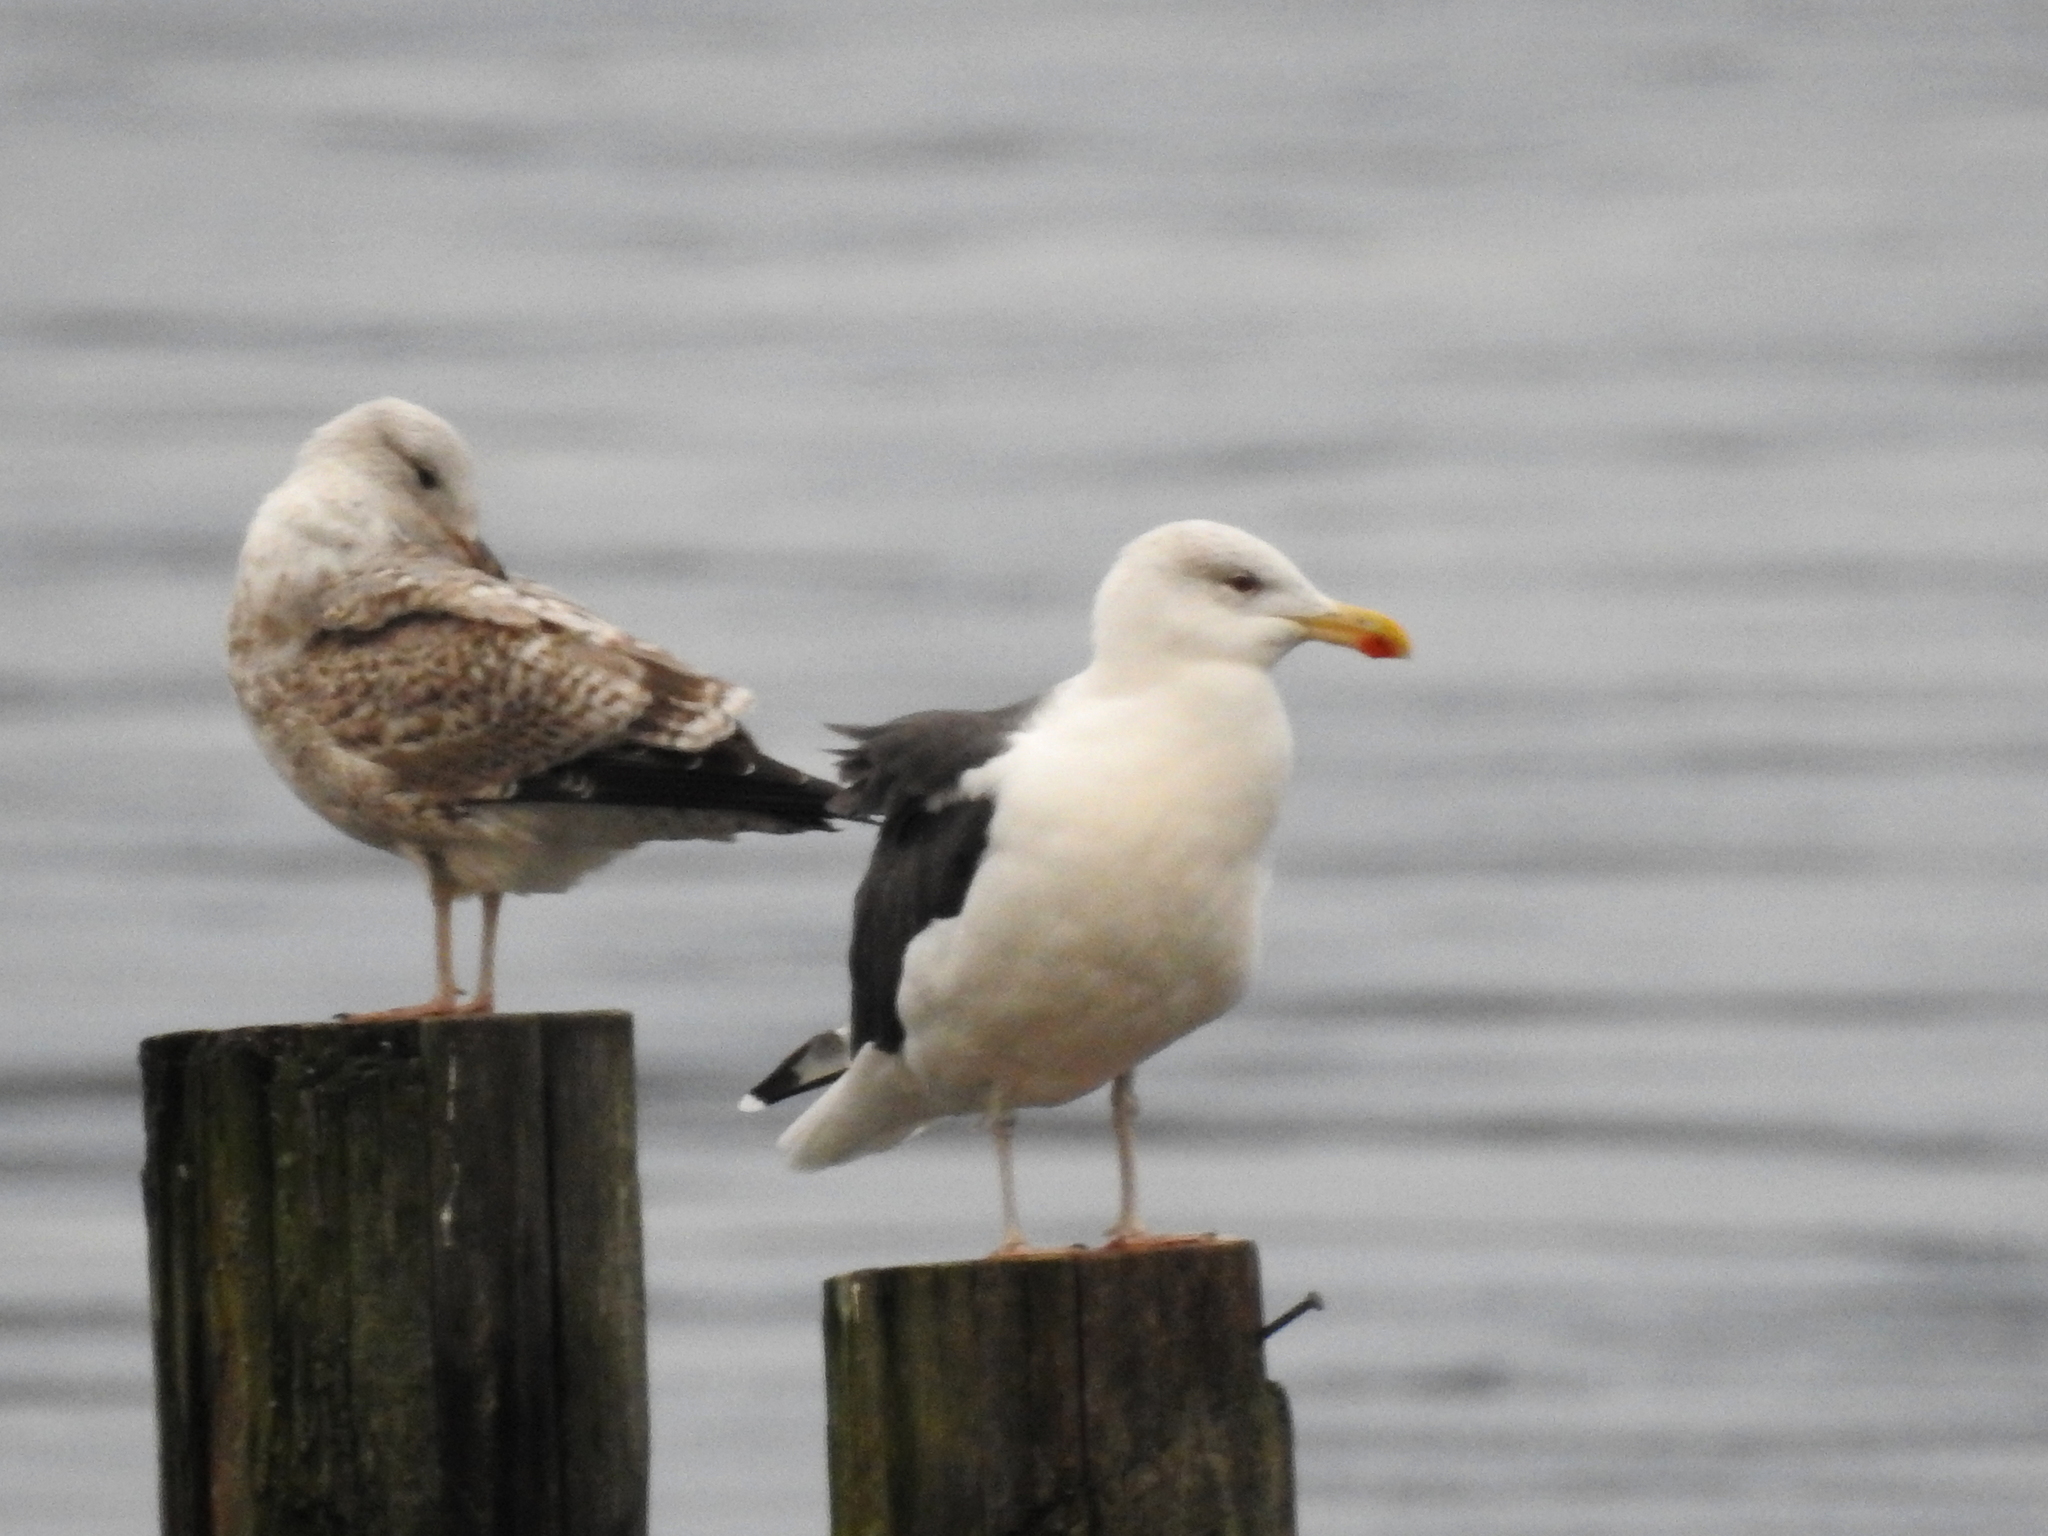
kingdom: Animalia
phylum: Chordata
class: Aves
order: Charadriiformes
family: Laridae
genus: Larus
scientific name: Larus marinus
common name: Great black-backed gull
